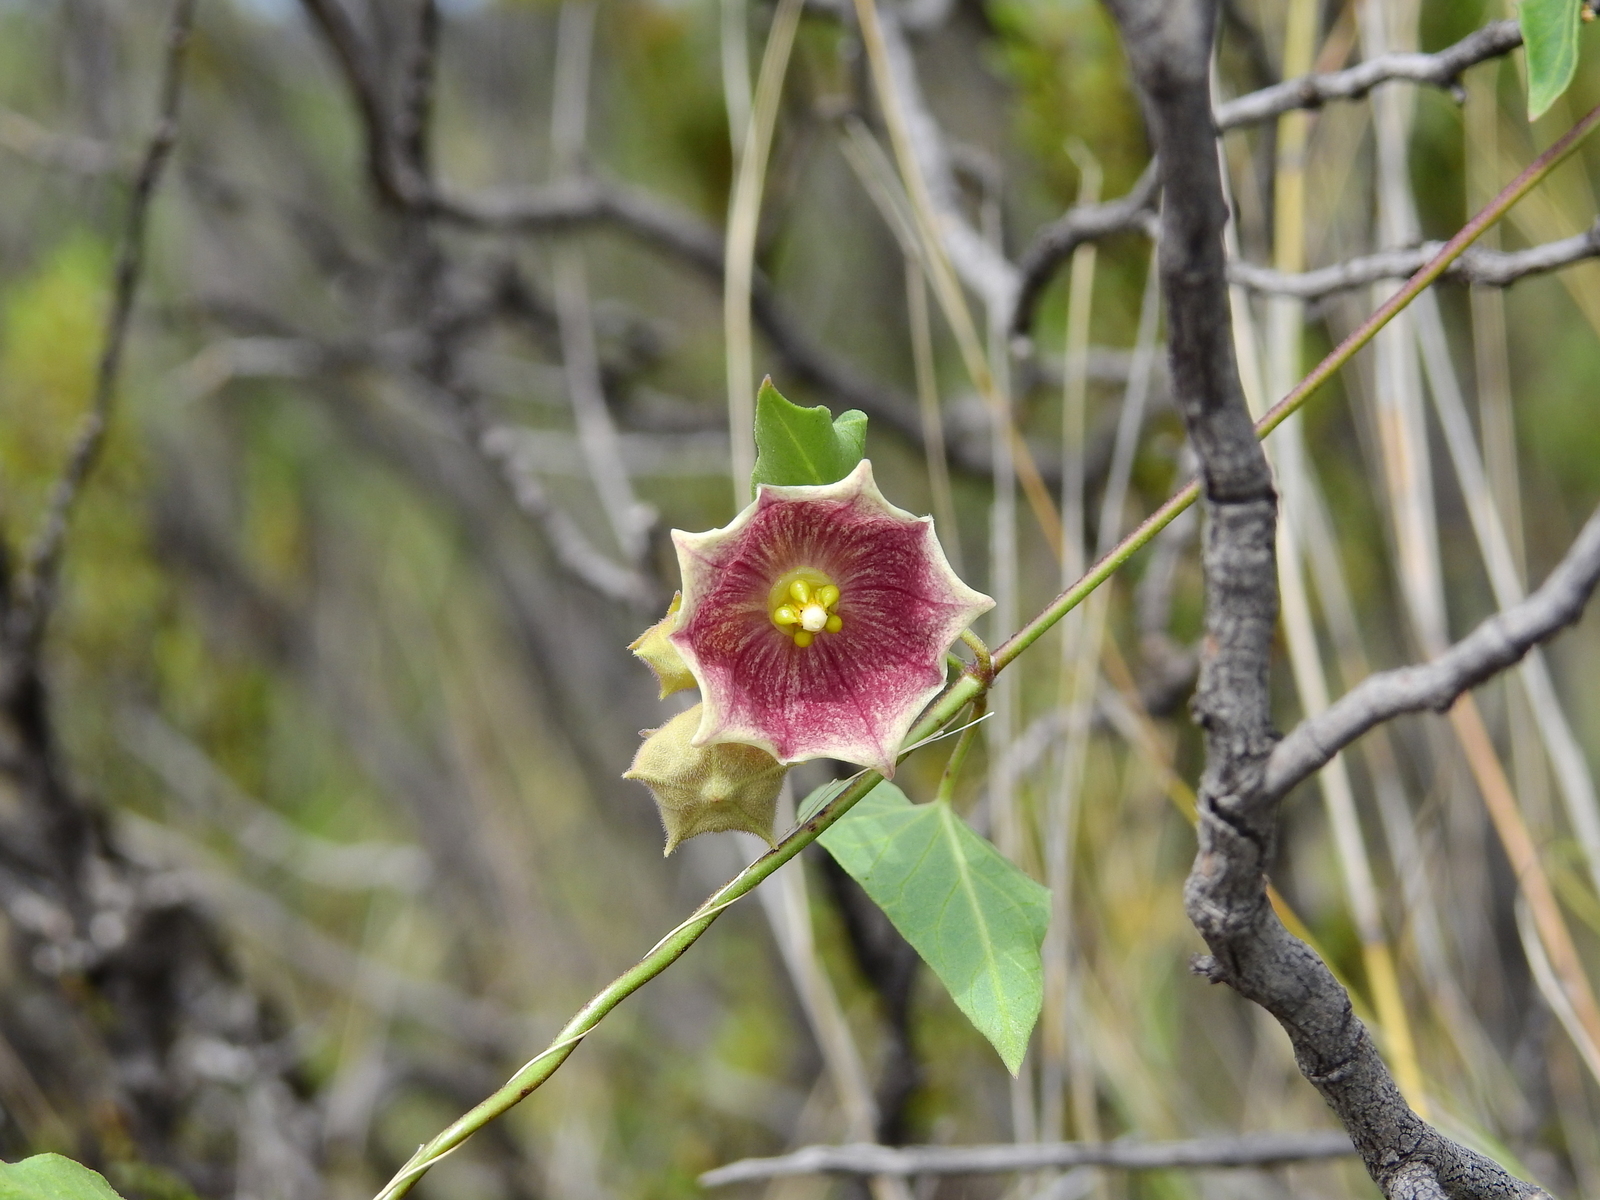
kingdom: Plantae
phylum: Tracheophyta
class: Magnoliopsida
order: Gentianales
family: Apocynaceae
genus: Philibertia
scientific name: Philibertia gilliesii
